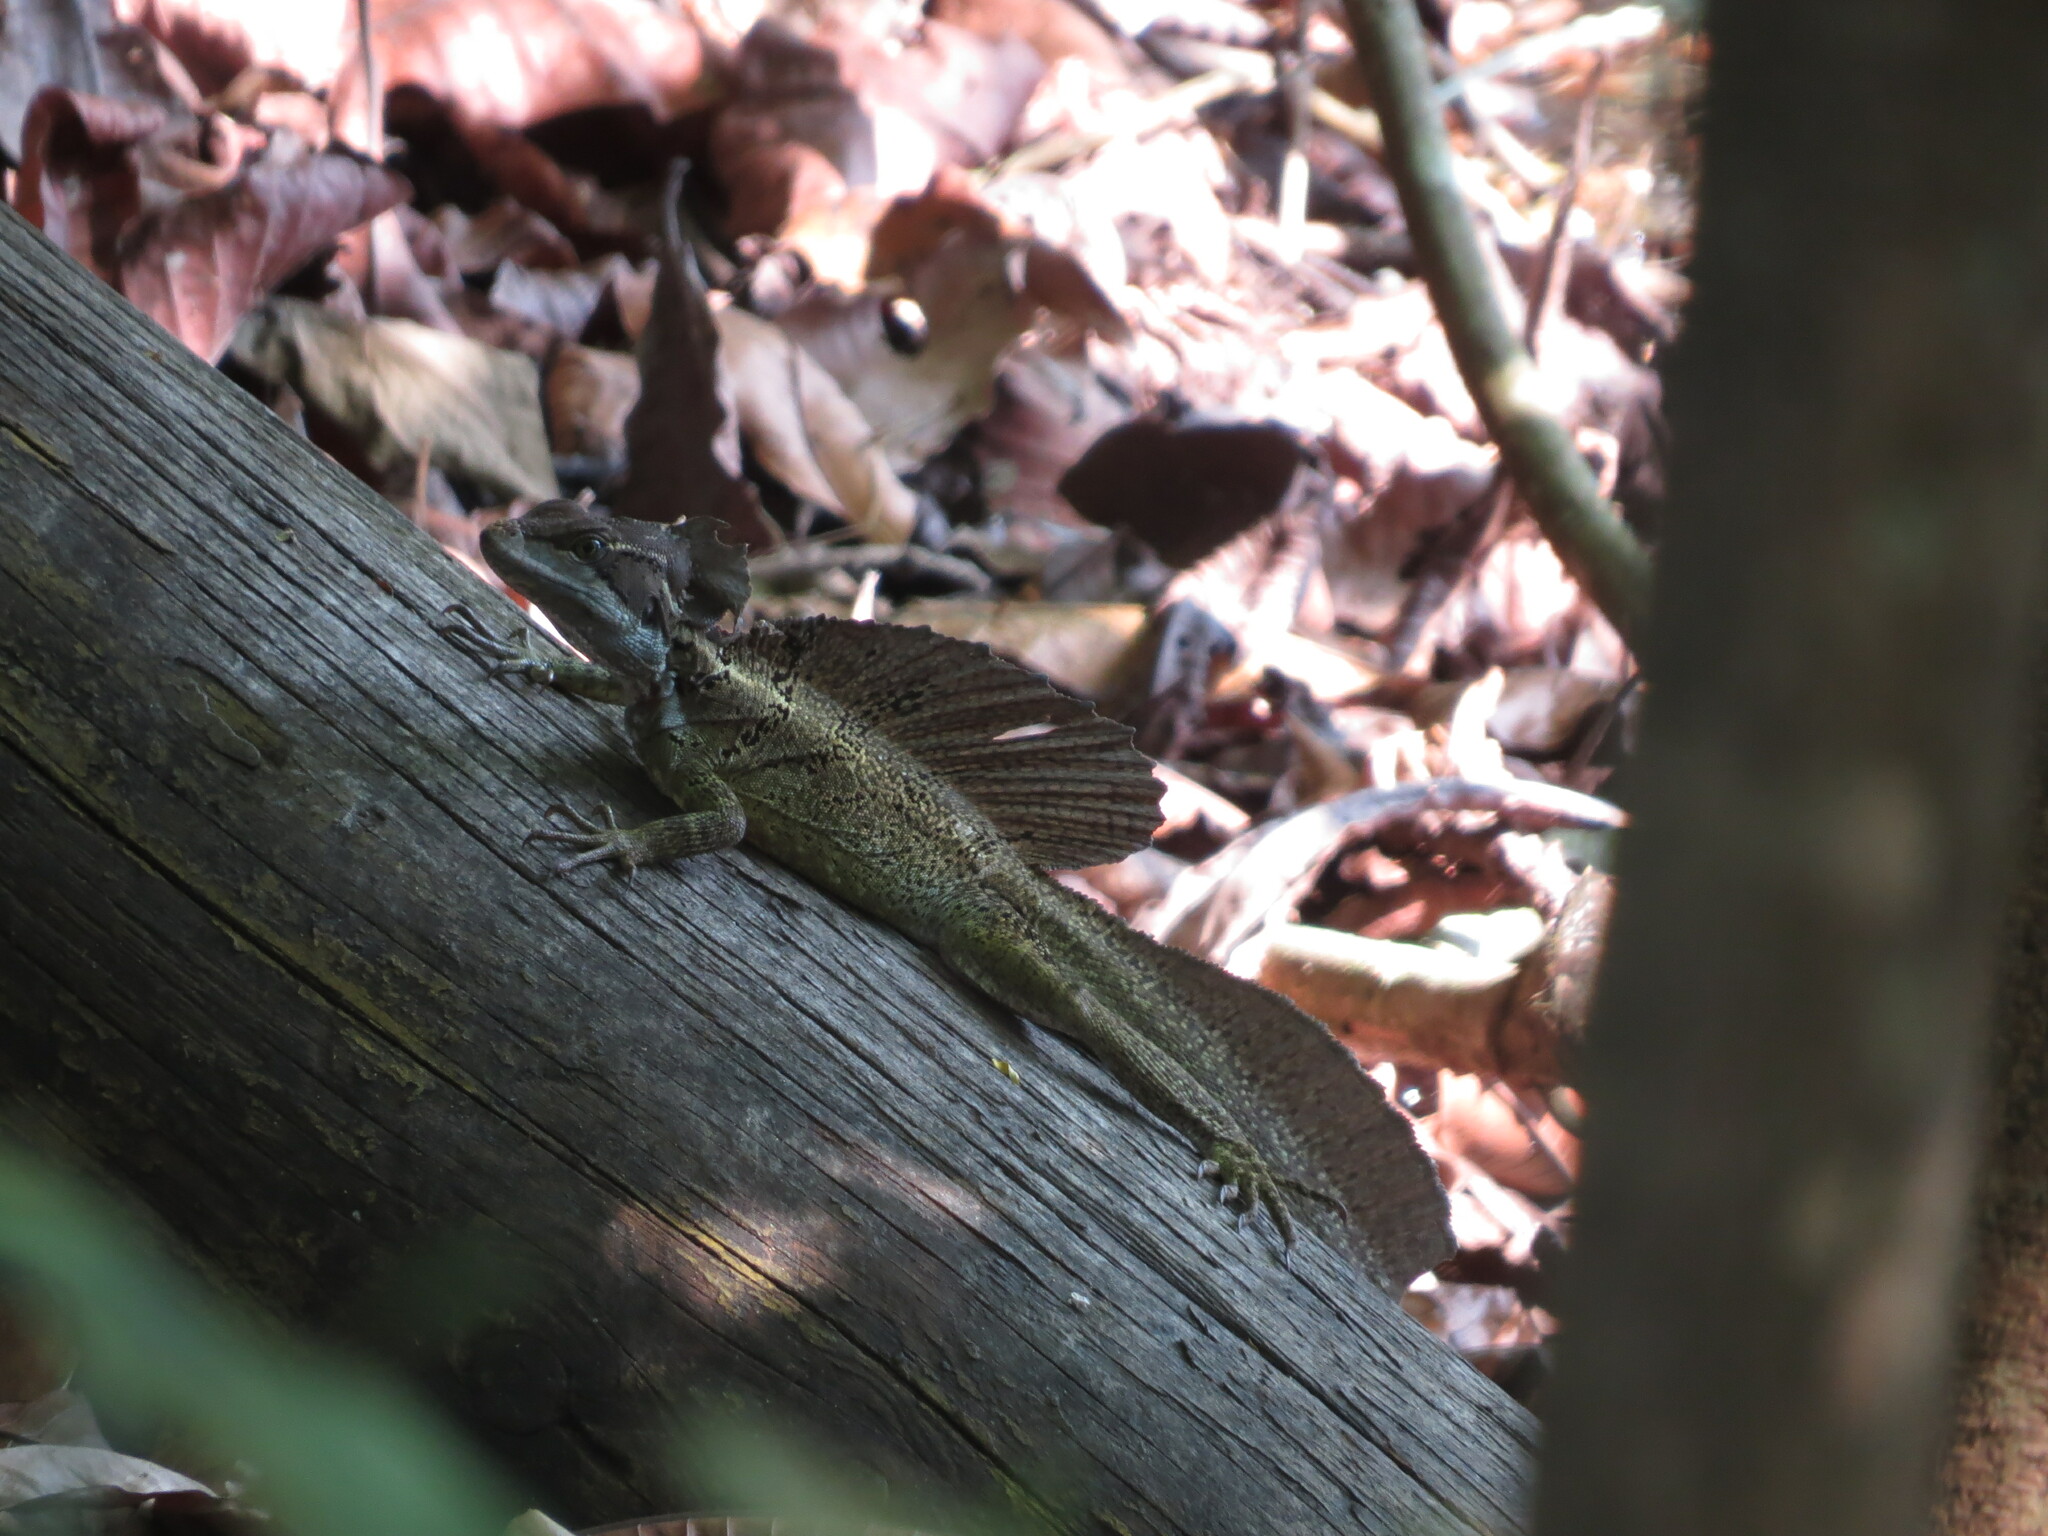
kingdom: Animalia
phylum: Chordata
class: Squamata
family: Corytophanidae
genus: Basiliscus
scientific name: Basiliscus basiliscus
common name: Common basilisk
